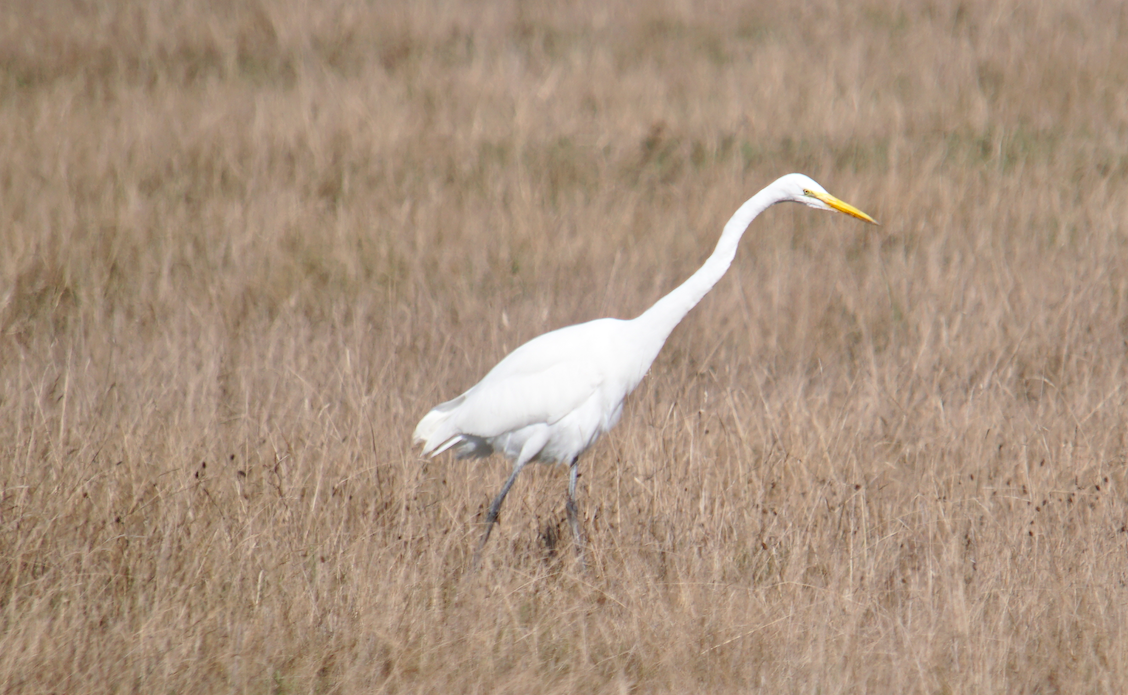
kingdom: Animalia
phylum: Chordata
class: Aves
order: Pelecaniformes
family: Ardeidae
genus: Ardea
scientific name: Ardea alba
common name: Great egret
